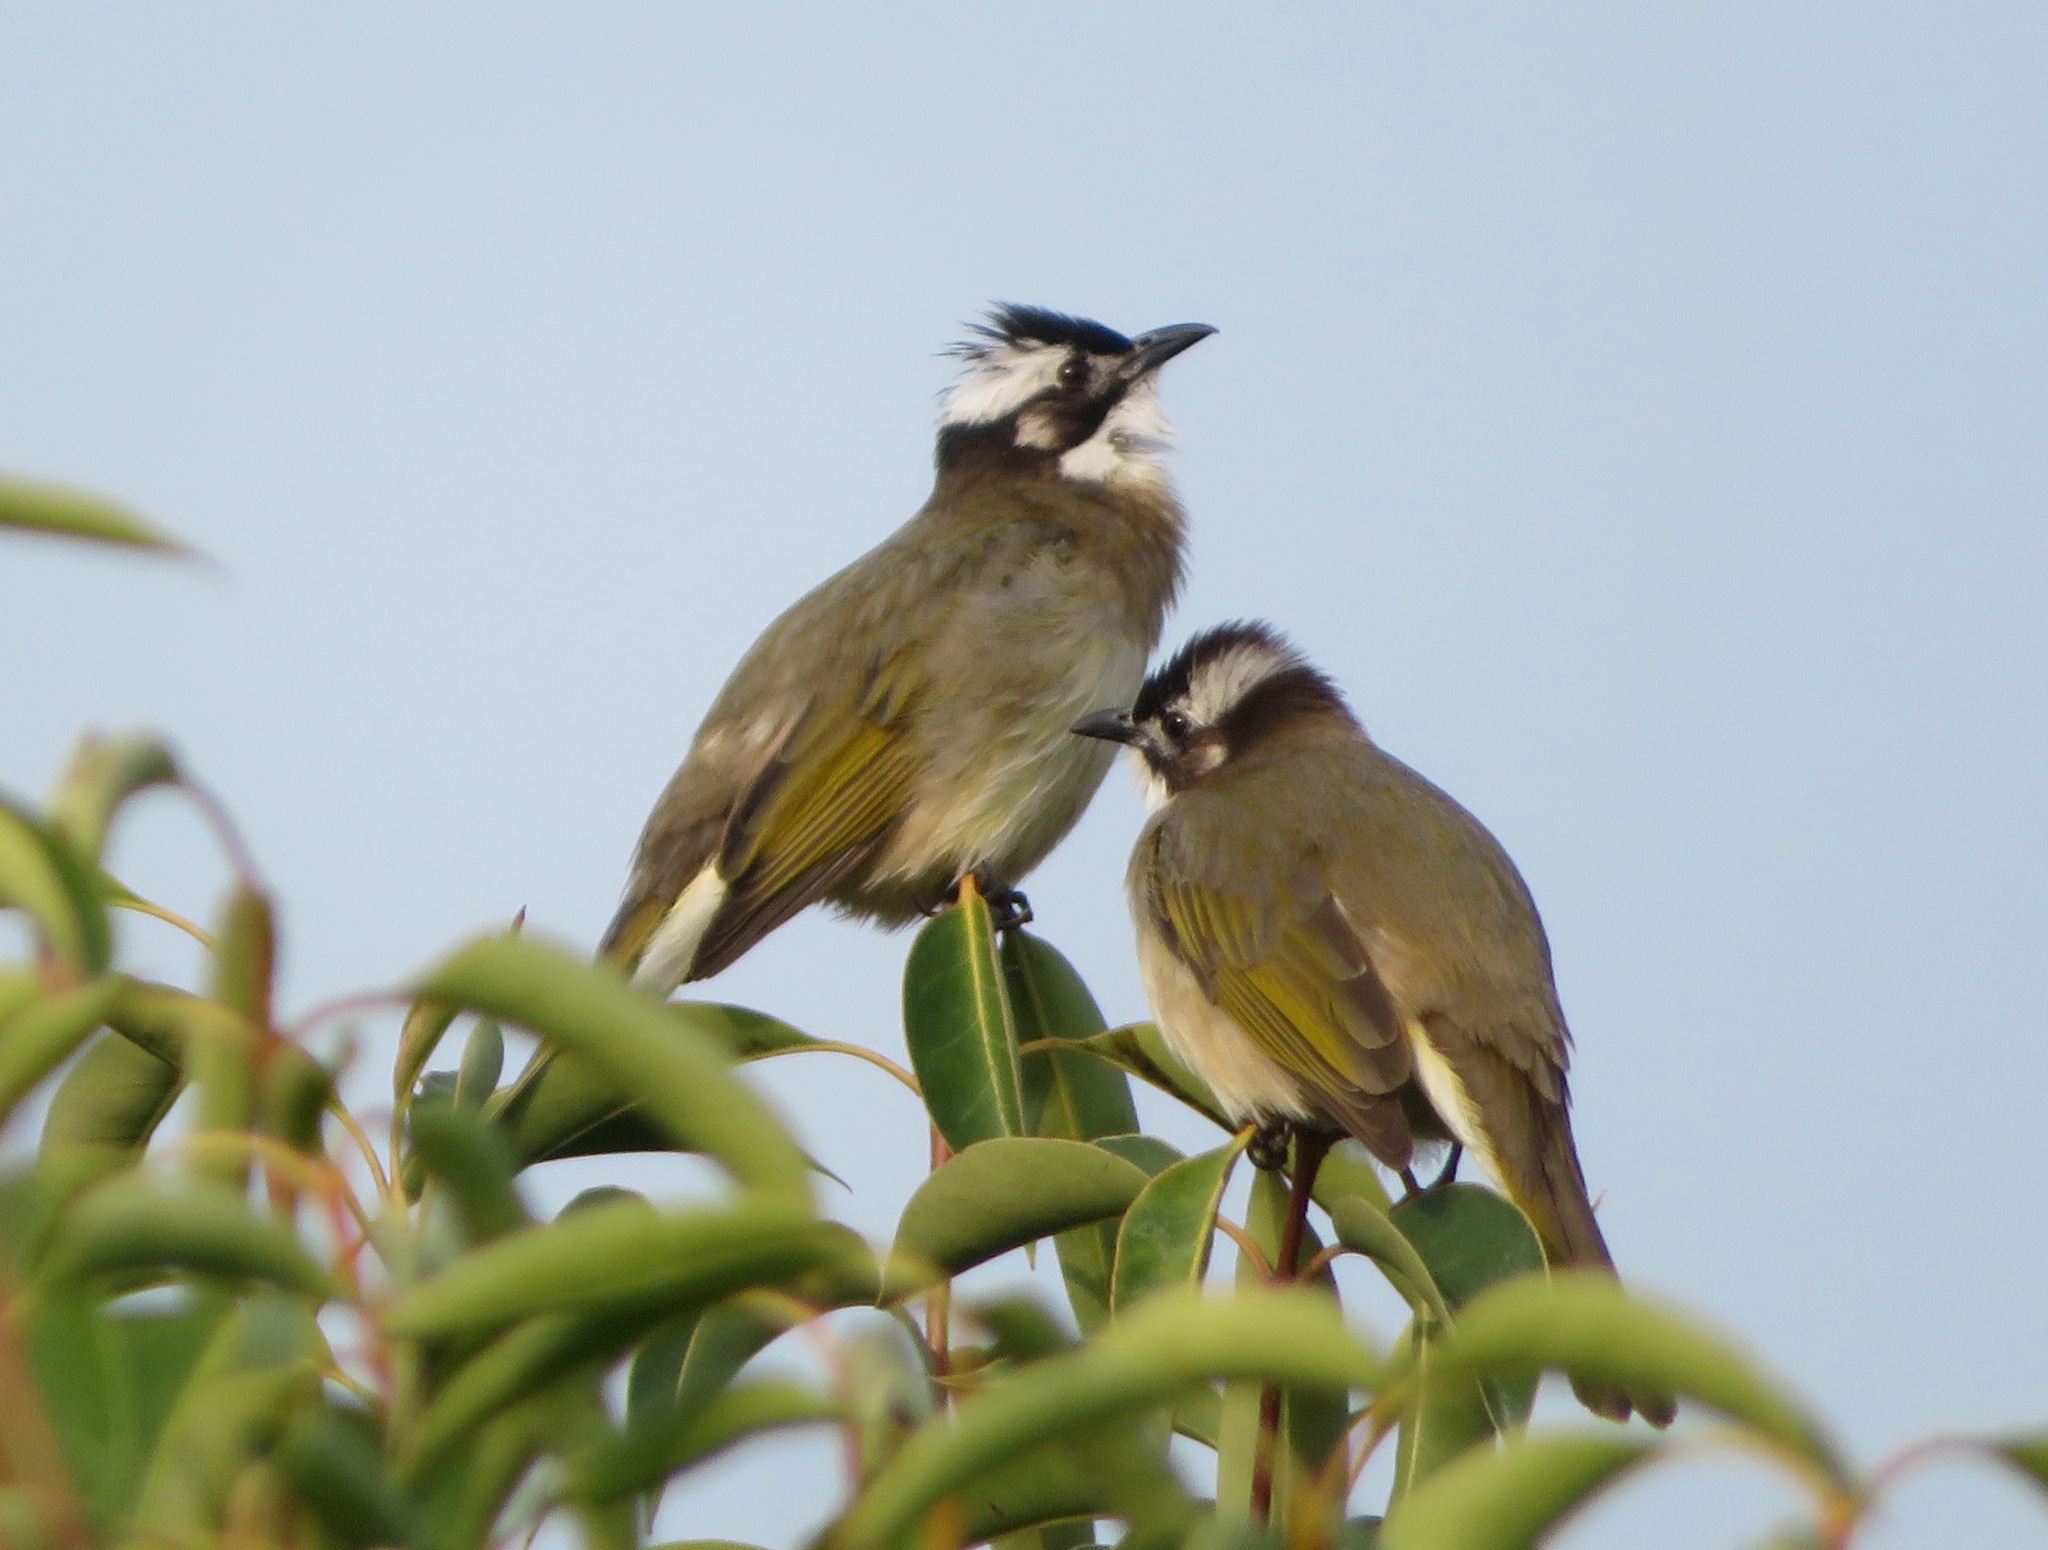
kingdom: Animalia
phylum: Chordata
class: Aves
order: Passeriformes
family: Pycnonotidae
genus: Pycnonotus
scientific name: Pycnonotus sinensis
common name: Light-vented bulbul
